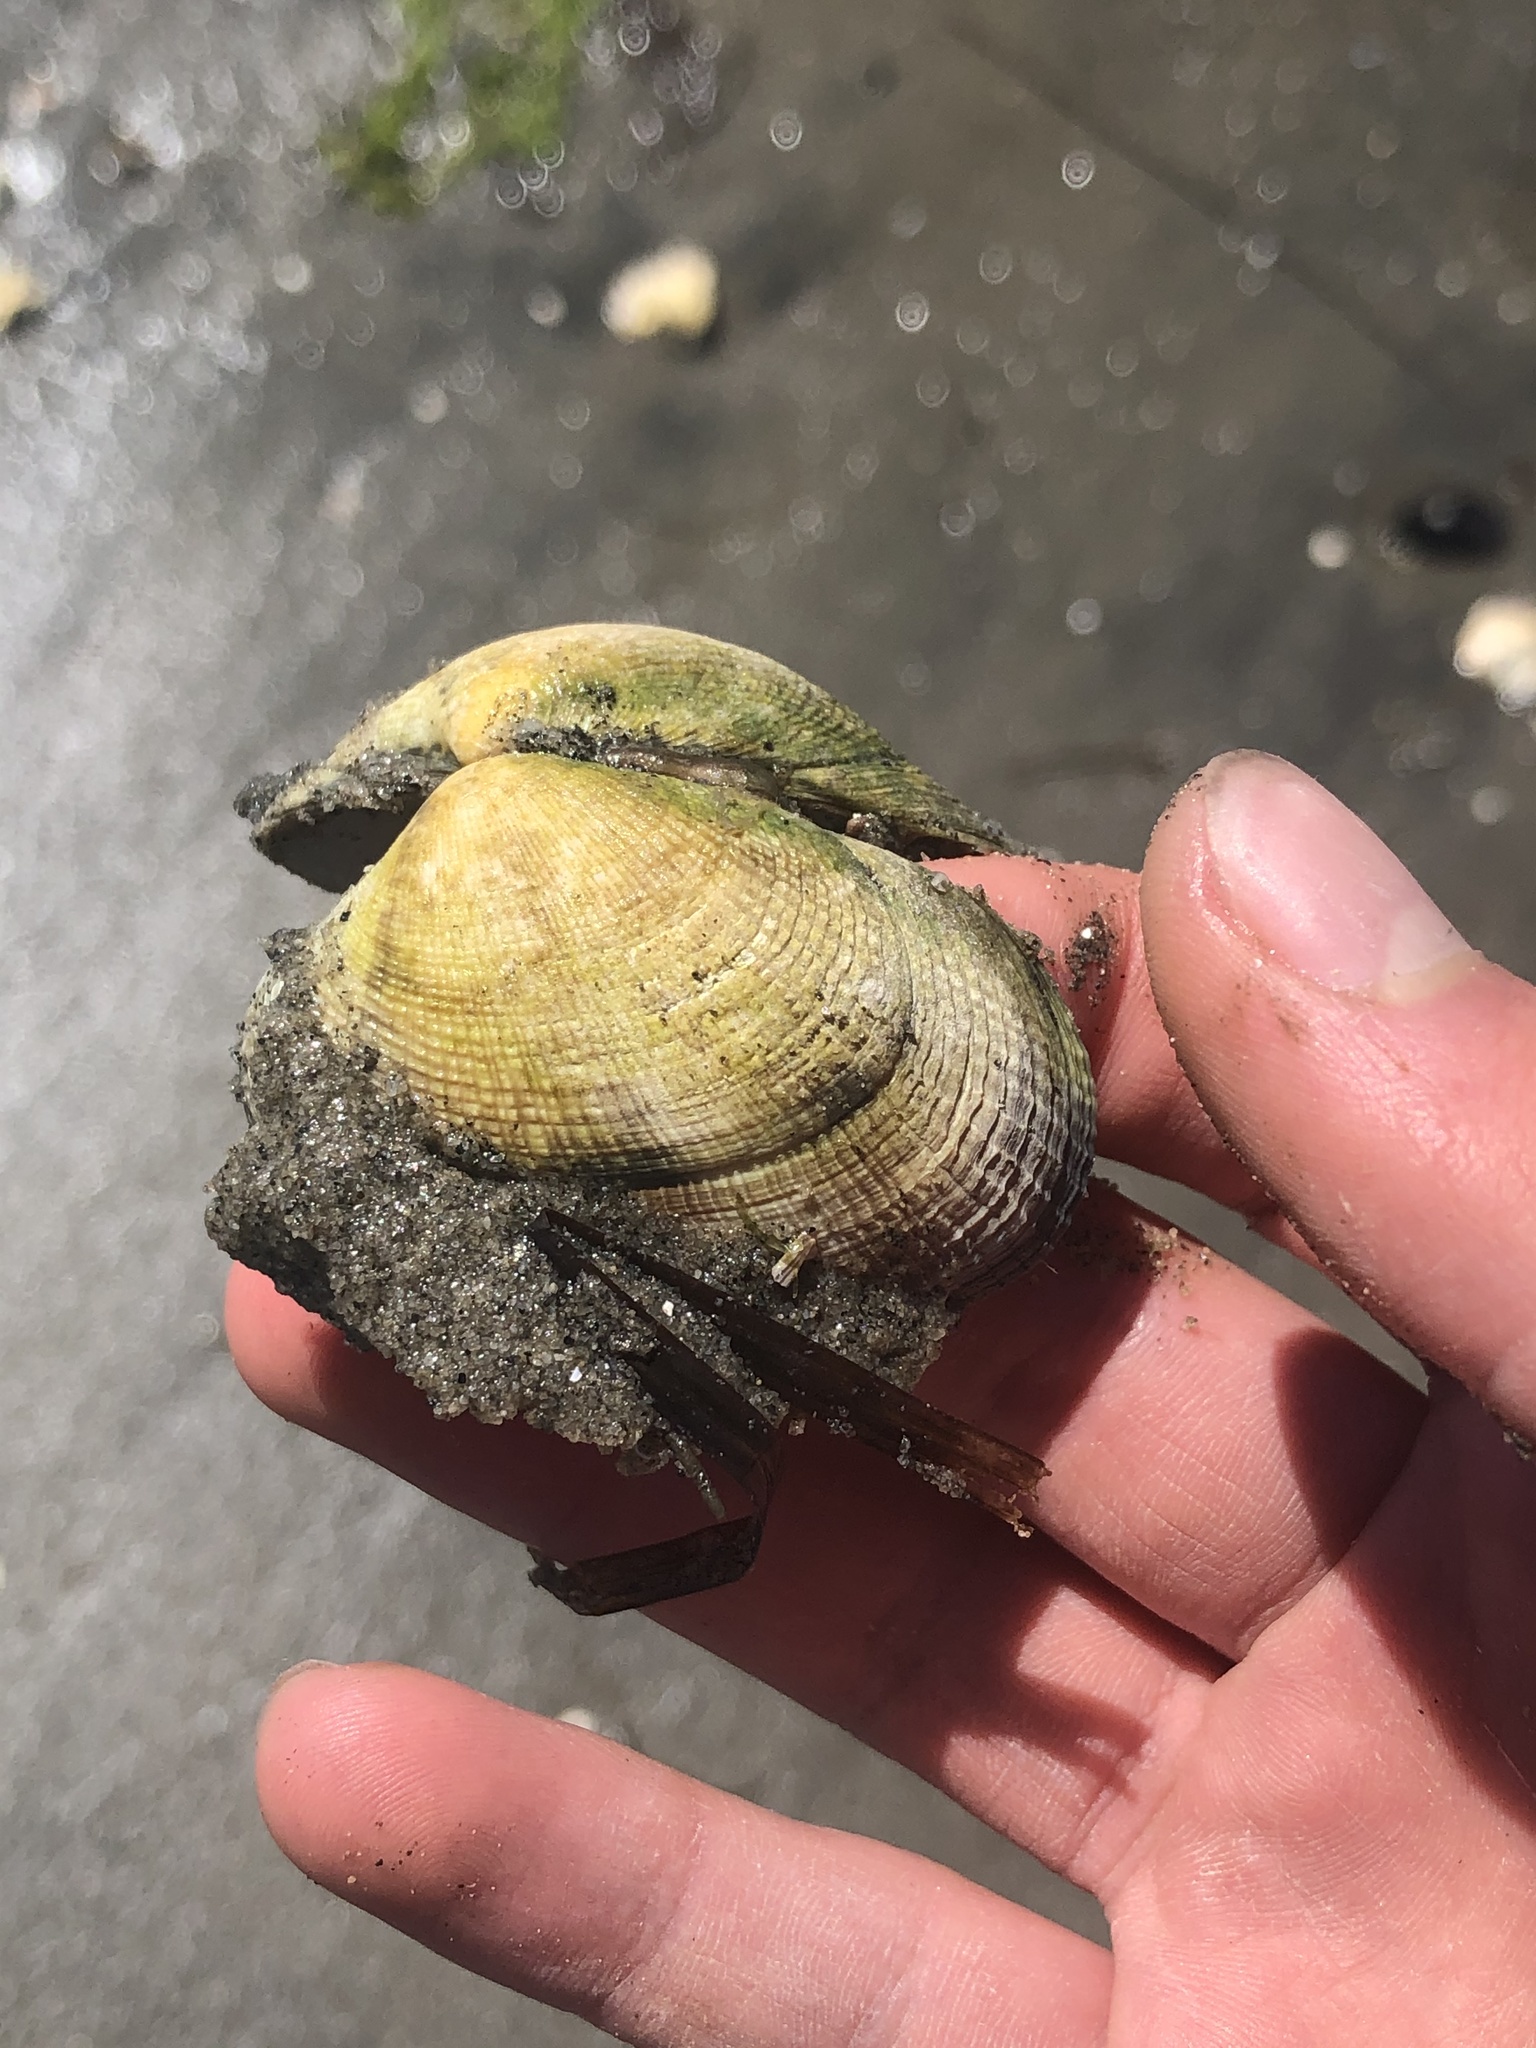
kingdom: Animalia
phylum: Mollusca
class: Bivalvia
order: Venerida
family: Veneridae
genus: Ruditapes
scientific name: Ruditapes philippinarum
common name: Manila clam
